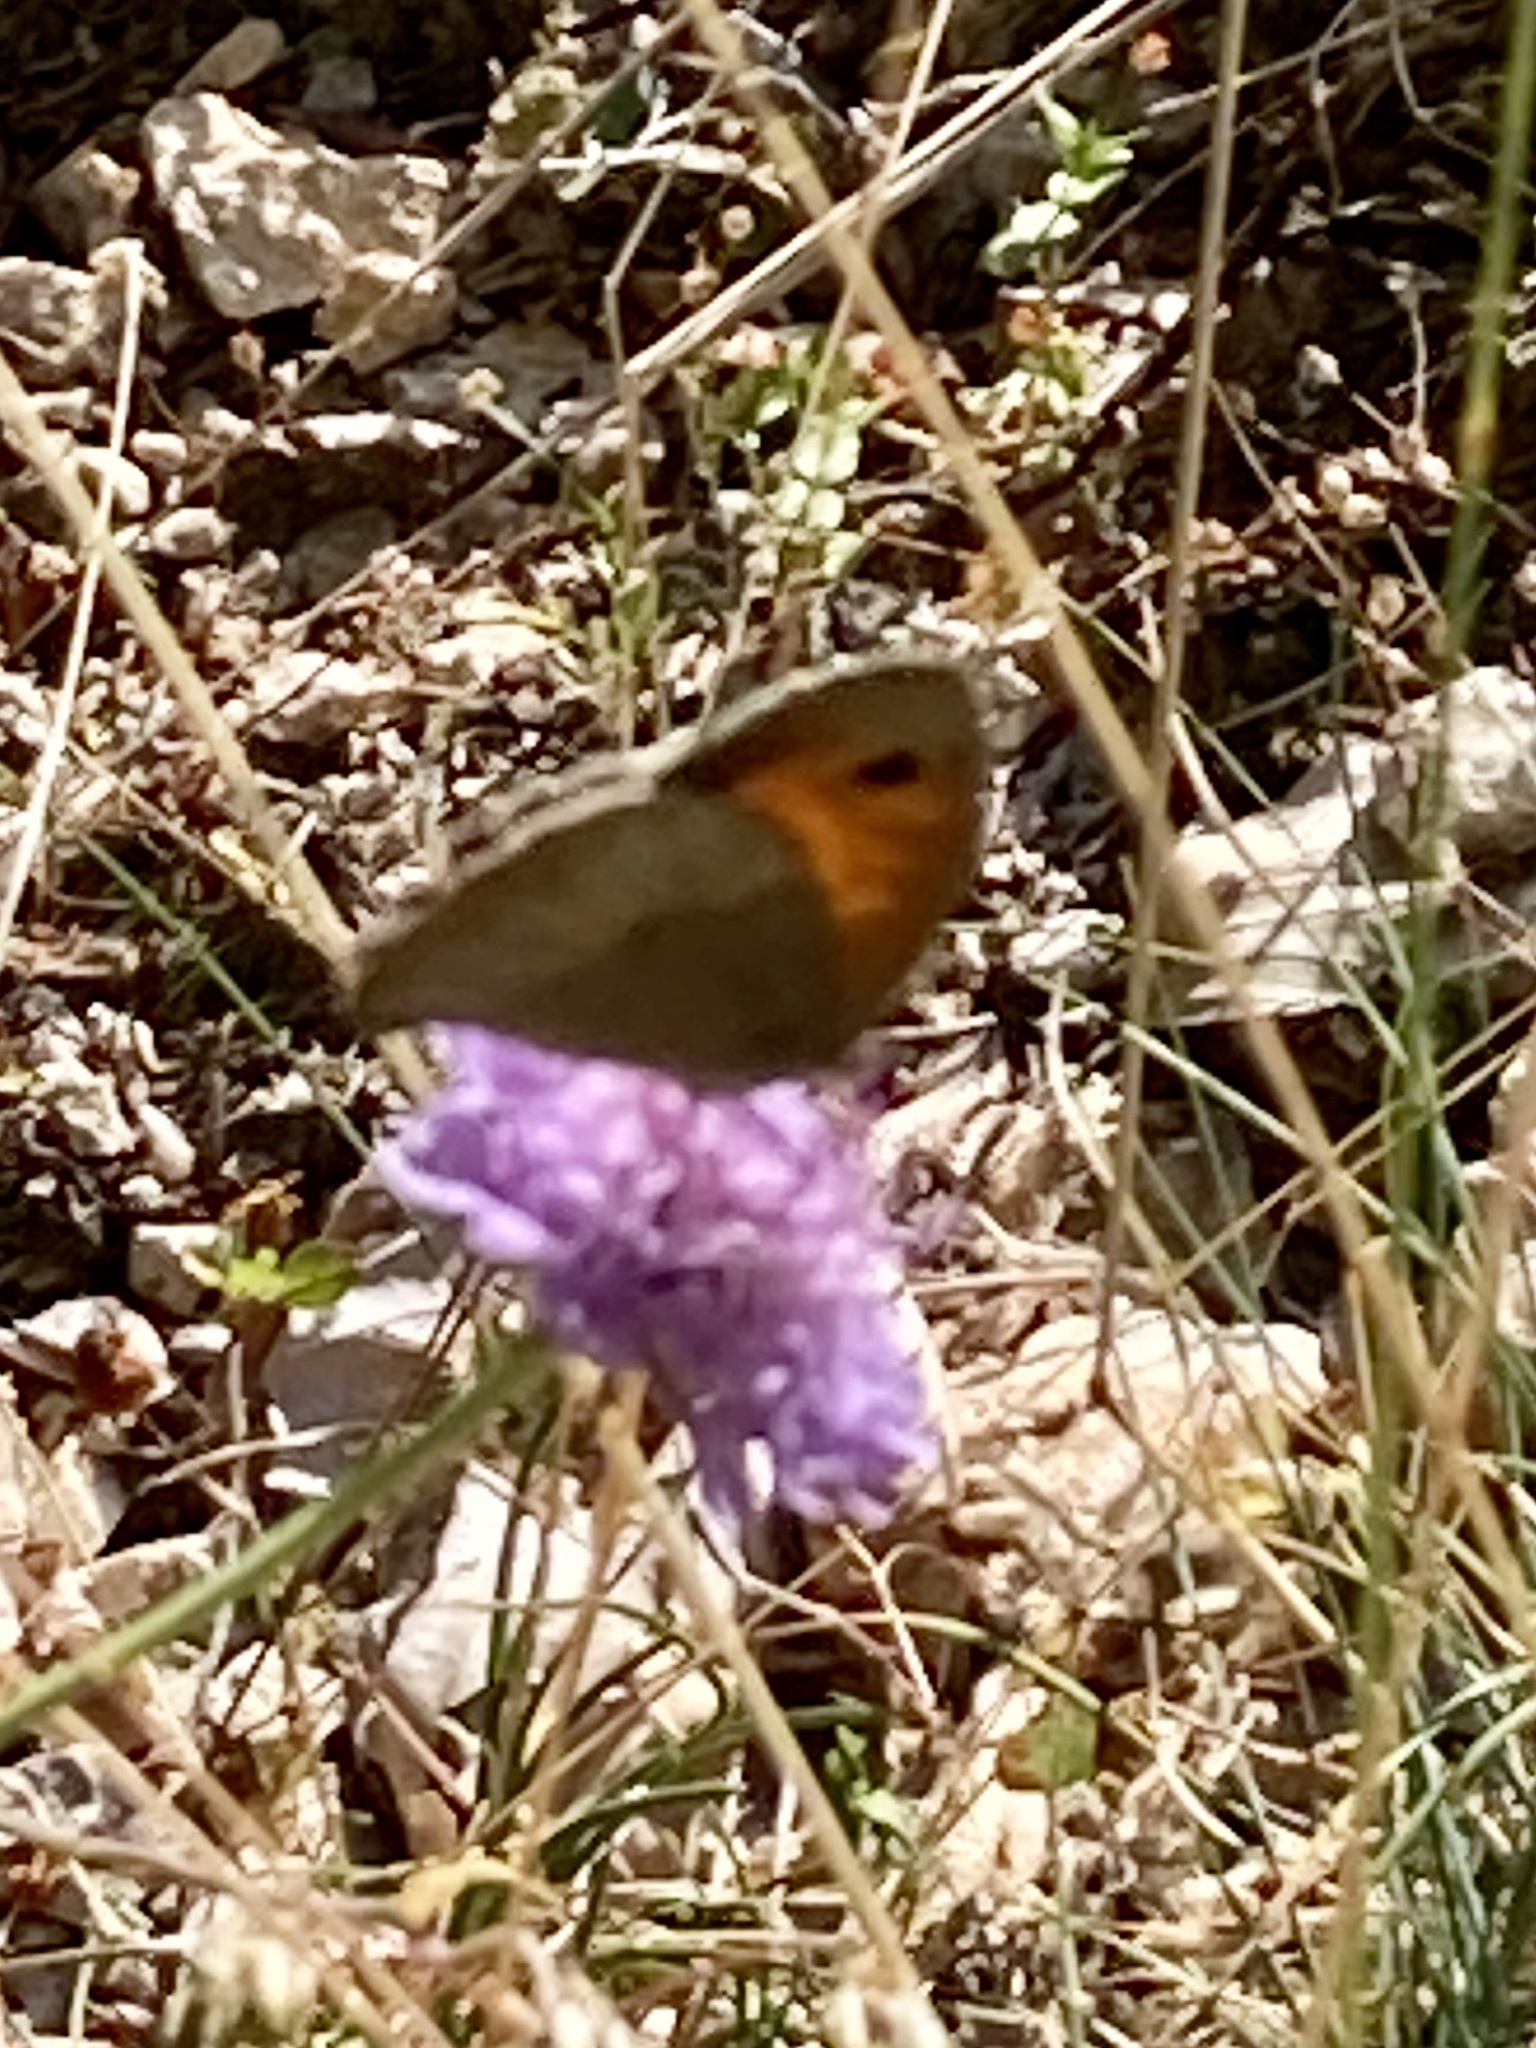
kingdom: Animalia
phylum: Arthropoda
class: Insecta
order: Lepidoptera
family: Nymphalidae
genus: Maniola
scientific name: Maniola jurtina
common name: Meadow brown
